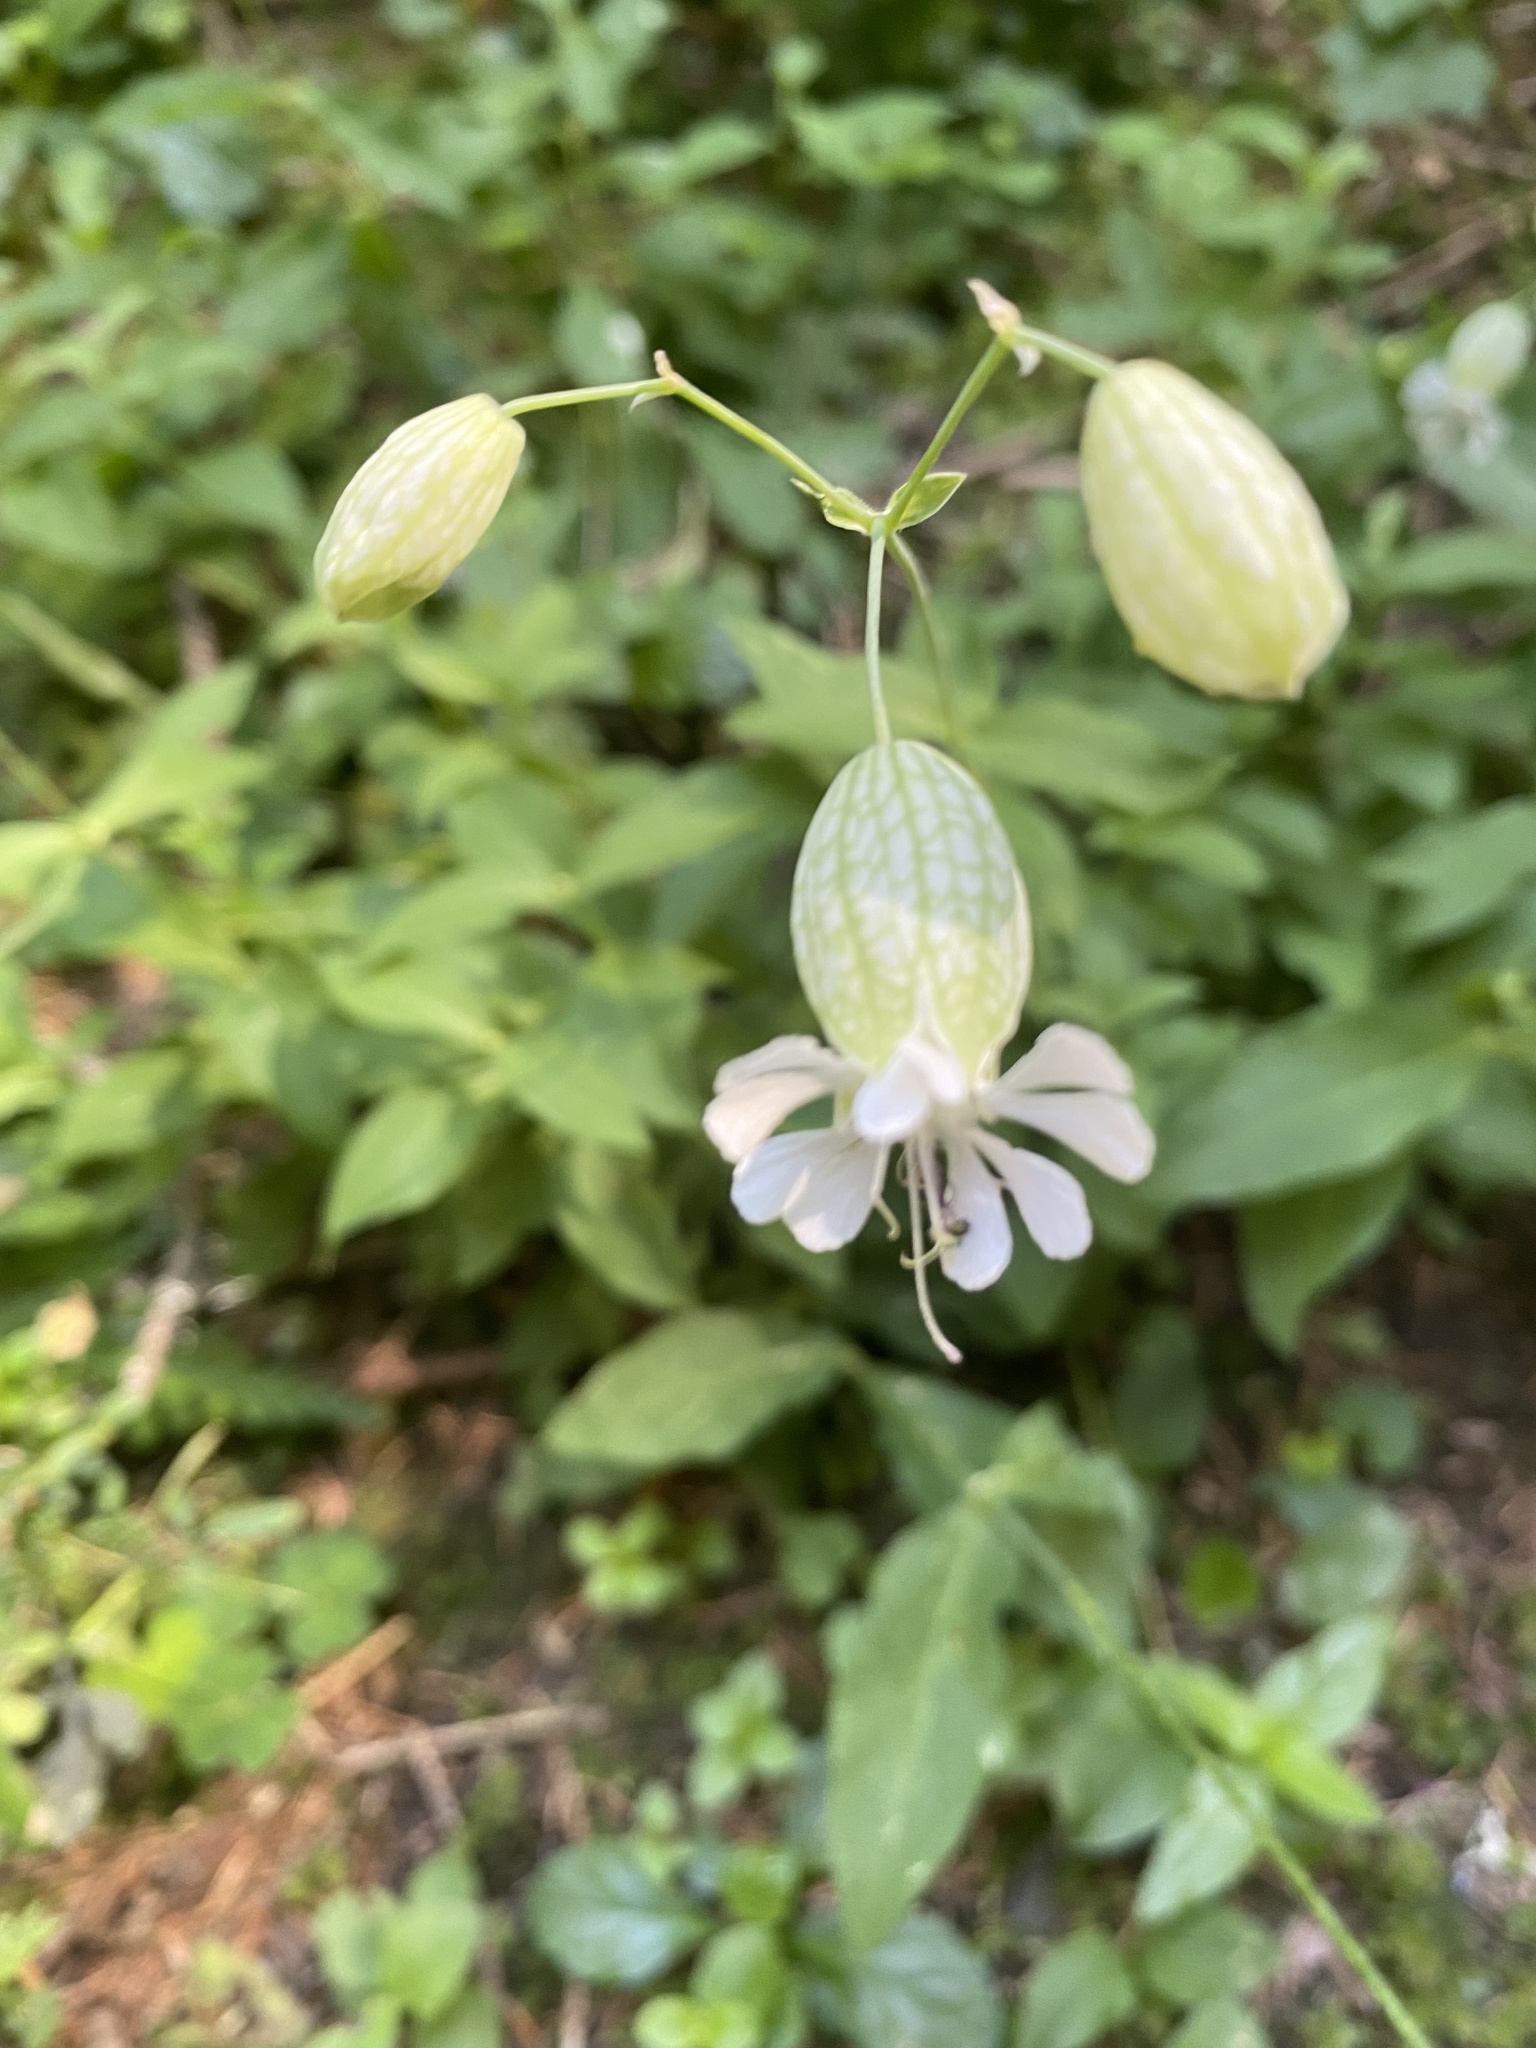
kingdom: Plantae
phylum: Tracheophyta
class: Magnoliopsida
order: Caryophyllales
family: Caryophyllaceae
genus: Silene
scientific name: Silene vulgaris
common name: Bladder campion
